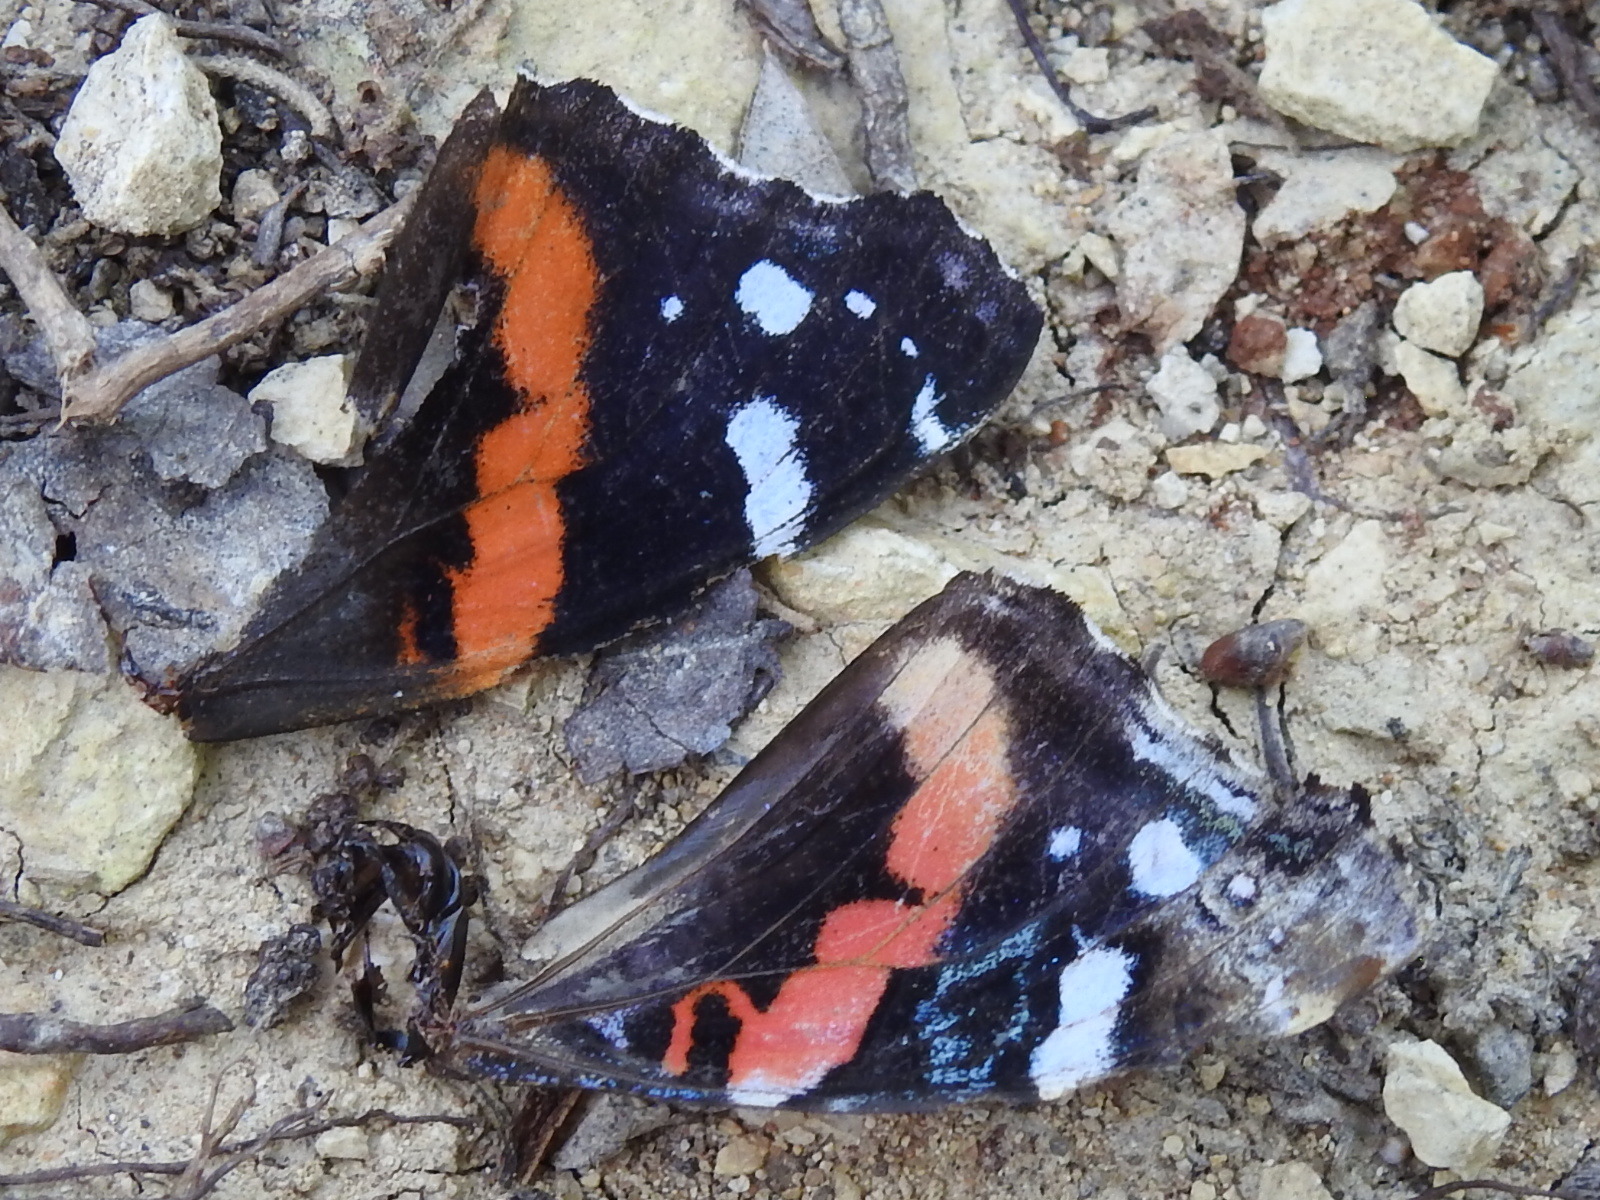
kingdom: Animalia
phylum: Arthropoda
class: Insecta
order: Lepidoptera
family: Nymphalidae
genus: Vanessa
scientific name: Vanessa atalanta
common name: Red admiral
